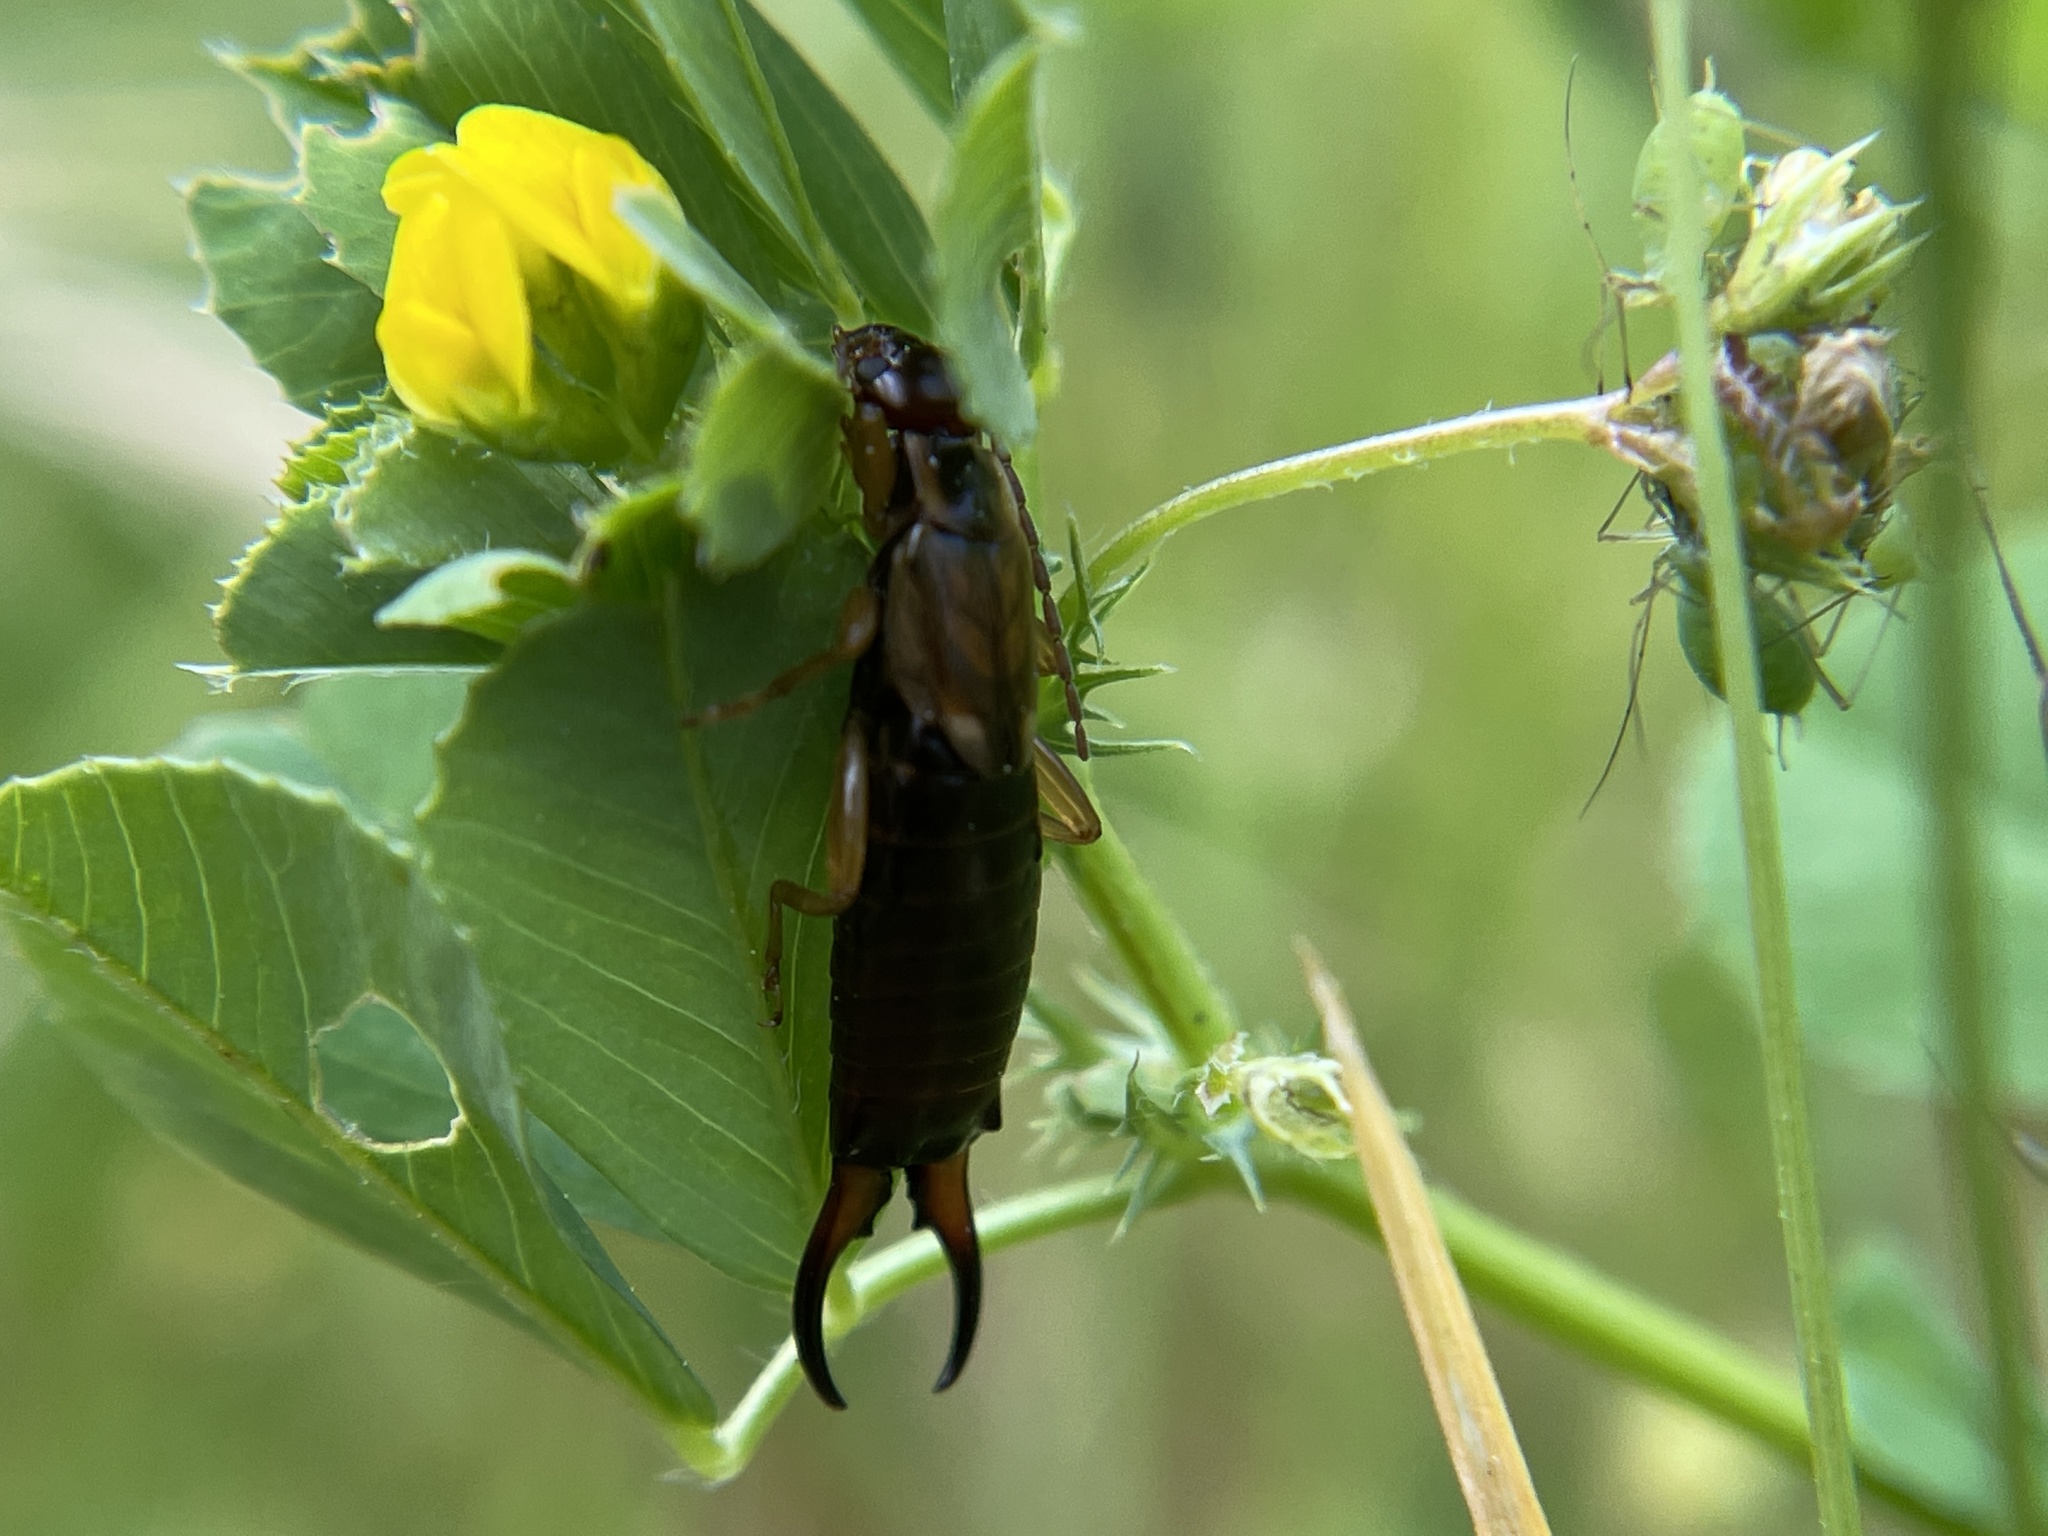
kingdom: Animalia
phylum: Arthropoda
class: Insecta
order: Dermaptera
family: Forficulidae
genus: Forficula
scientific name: Forficula
